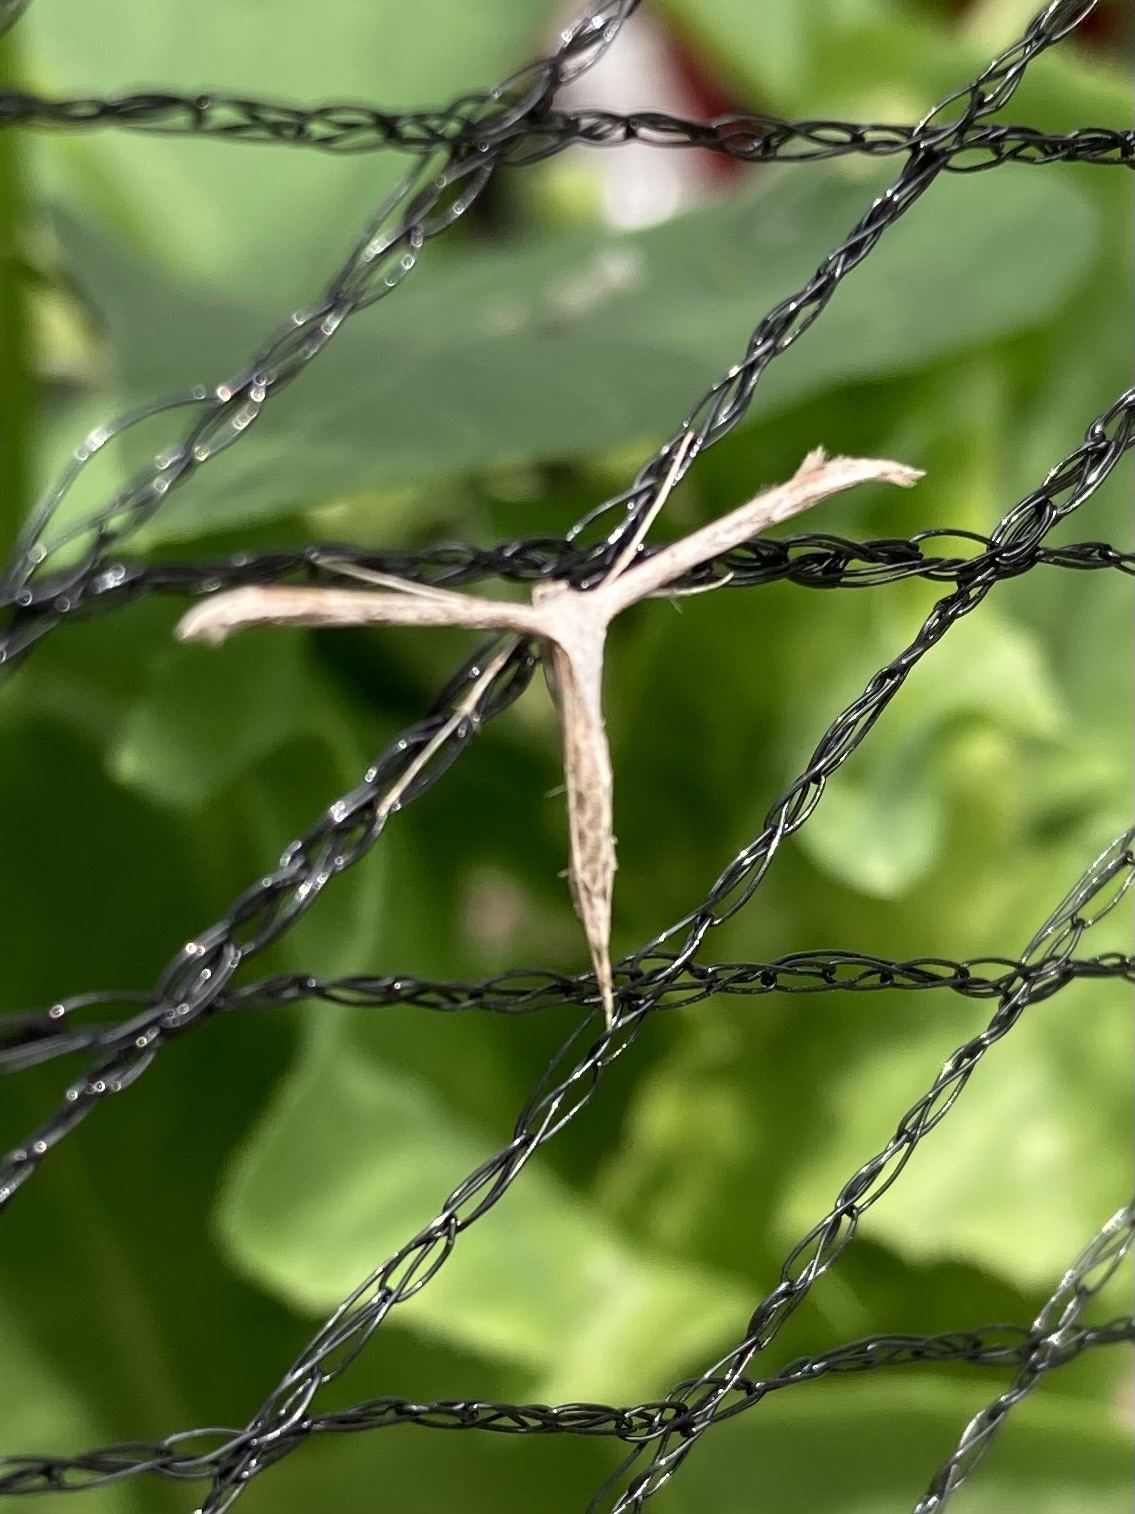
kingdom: Animalia
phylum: Arthropoda
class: Insecta
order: Lepidoptera
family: Pterophoridae
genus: Emmelina
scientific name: Emmelina monodactyla
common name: Common plume
